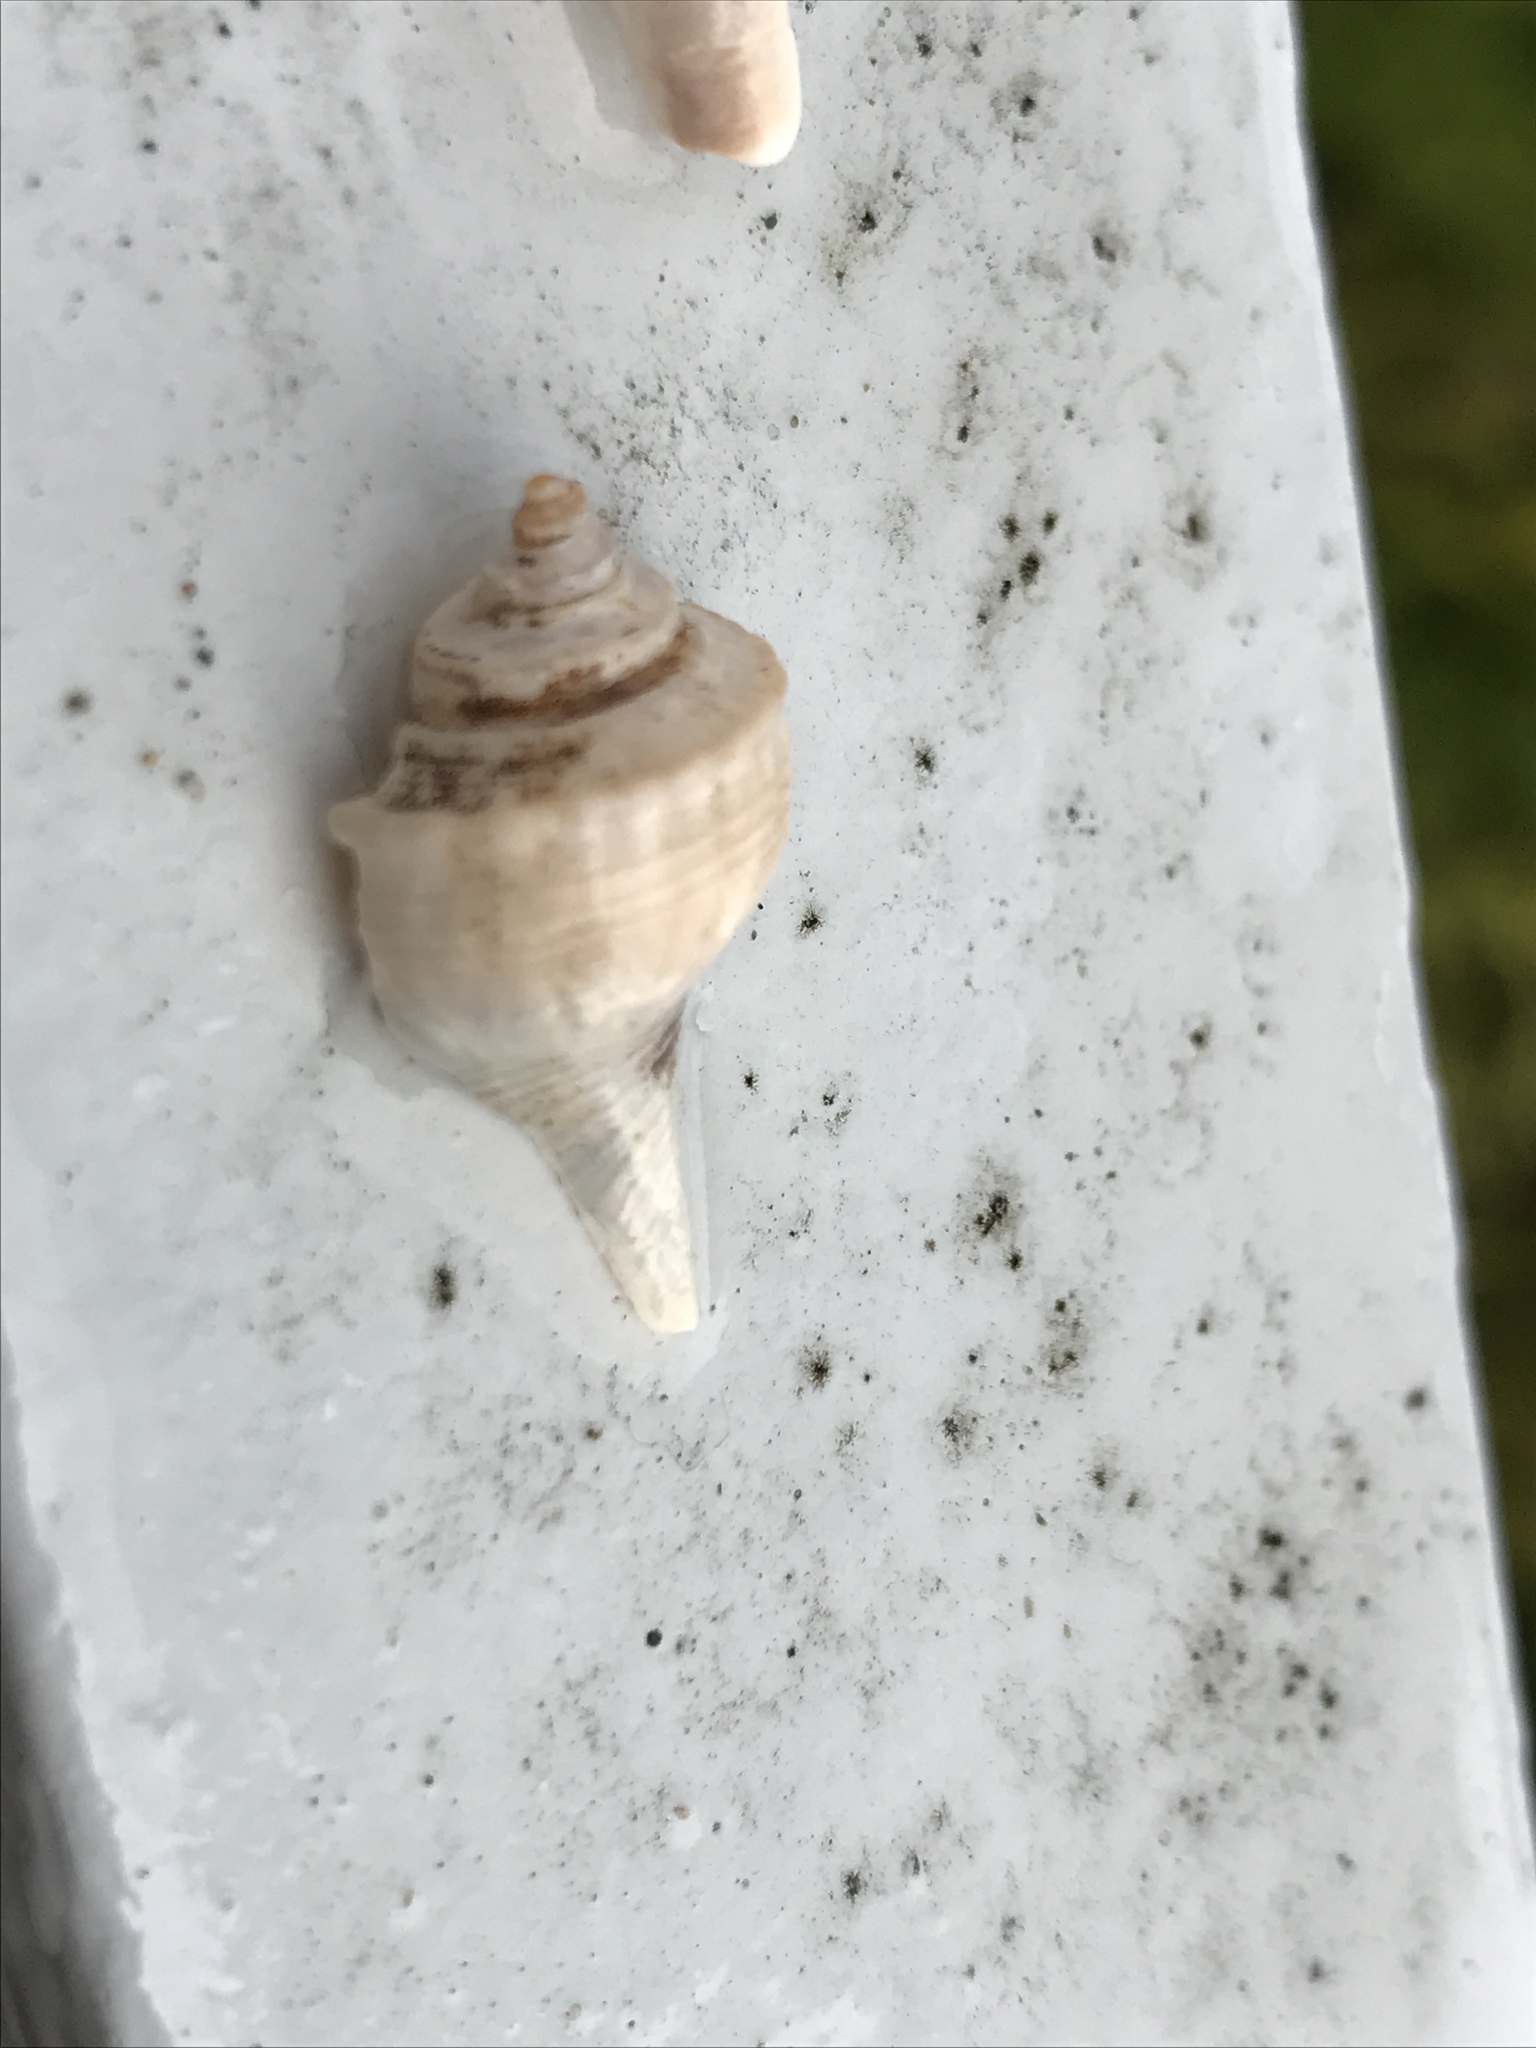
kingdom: Animalia
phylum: Mollusca
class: Gastropoda
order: Neogastropoda
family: Busyconidae
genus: Busycotypus
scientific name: Busycotypus canaliculatus
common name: Channeled whelk
